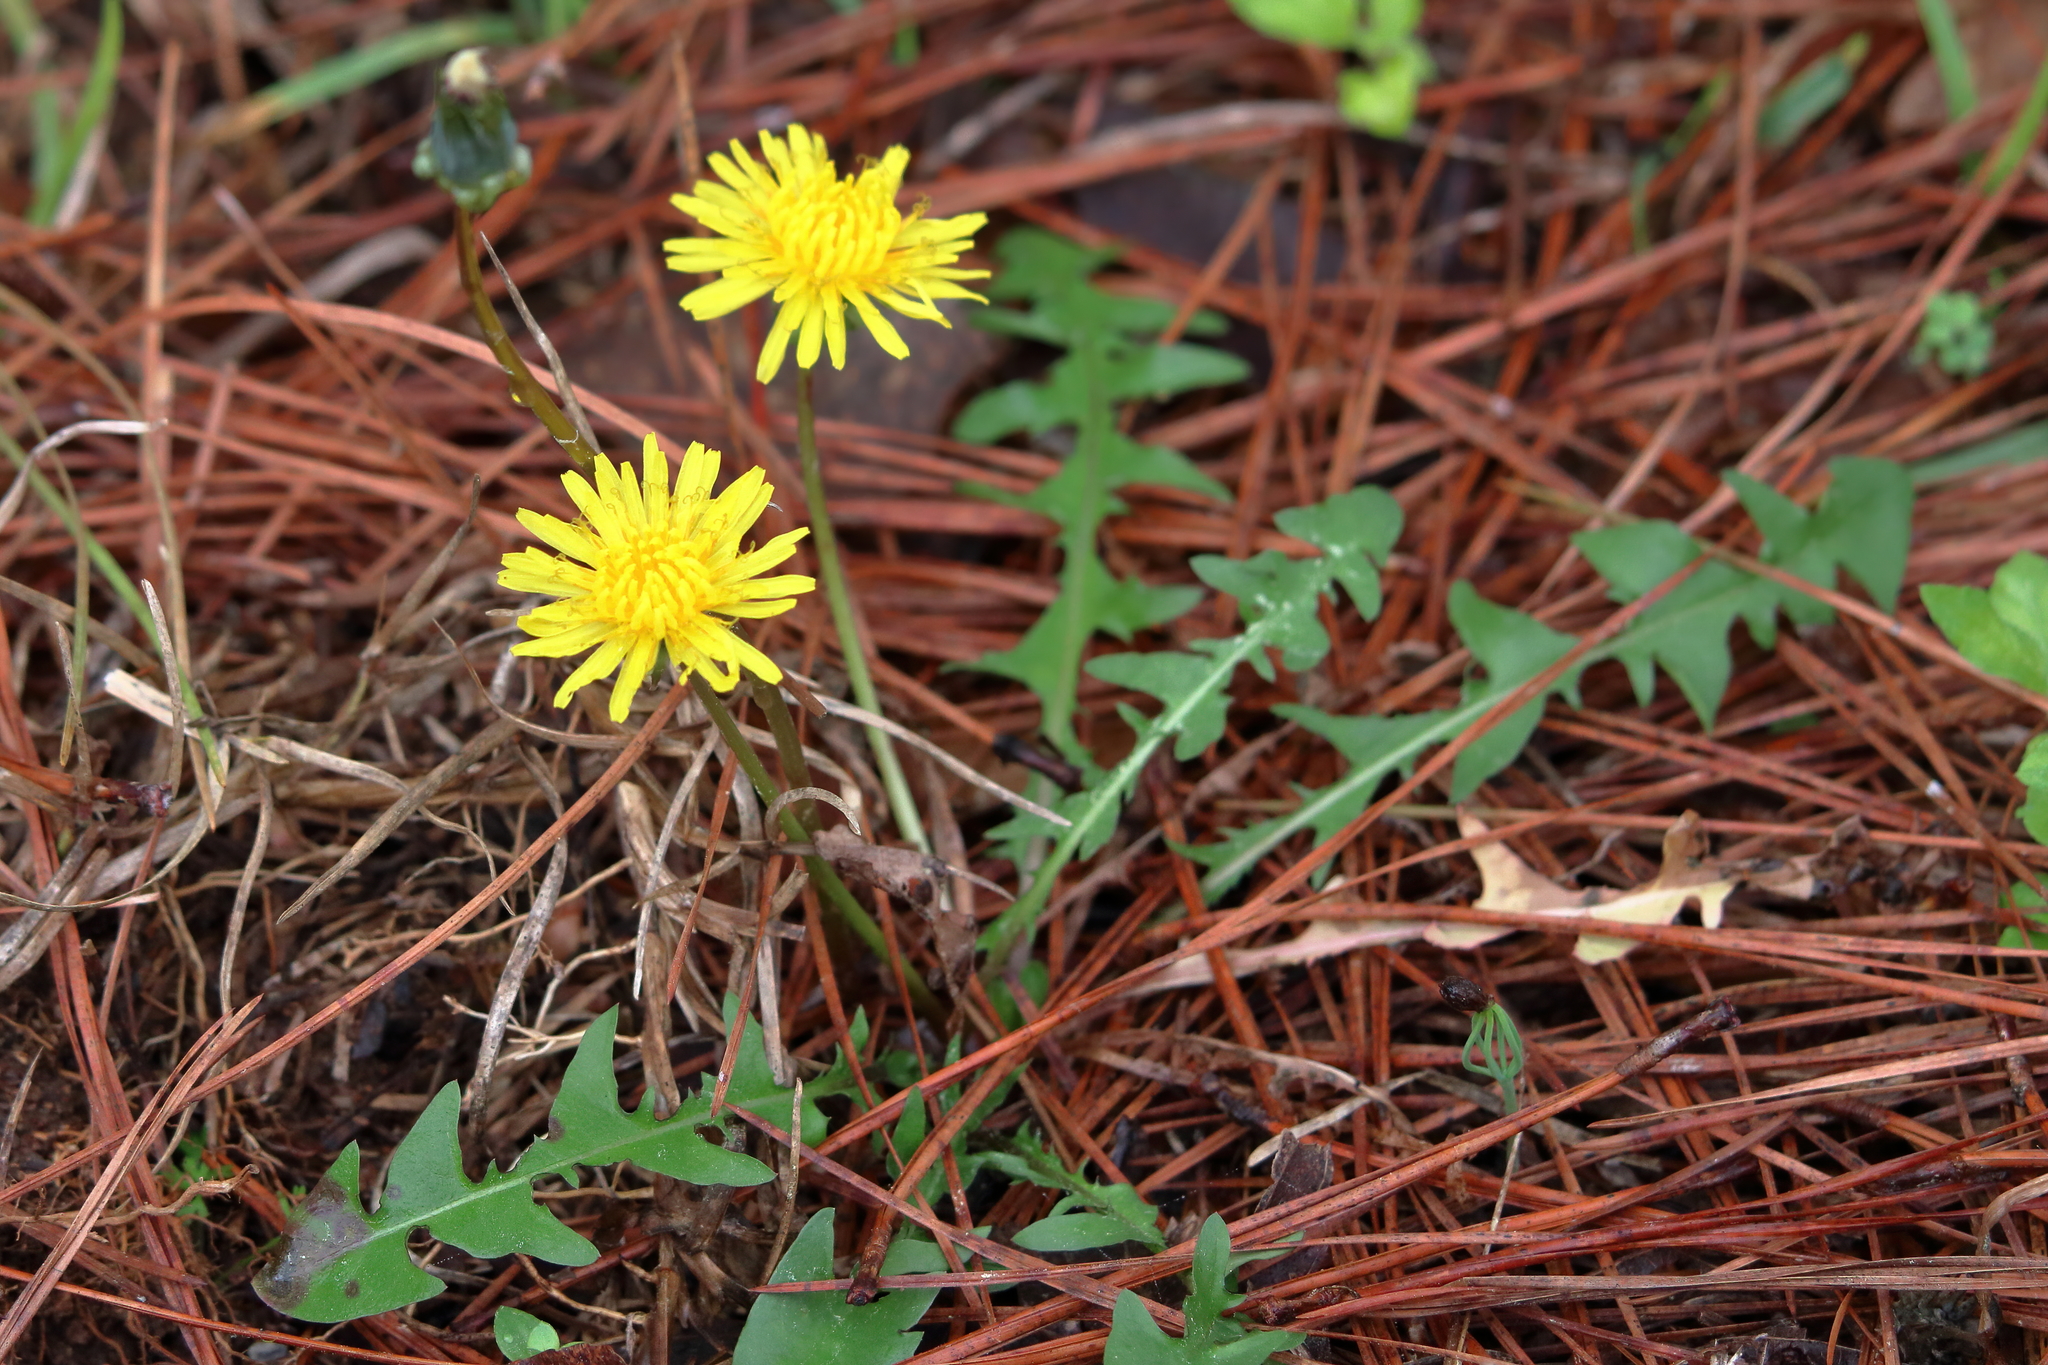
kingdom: Plantae
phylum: Tracheophyta
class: Magnoliopsida
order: Asterales
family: Asteraceae
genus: Taraxacum
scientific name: Taraxacum officinale
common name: Common dandelion
